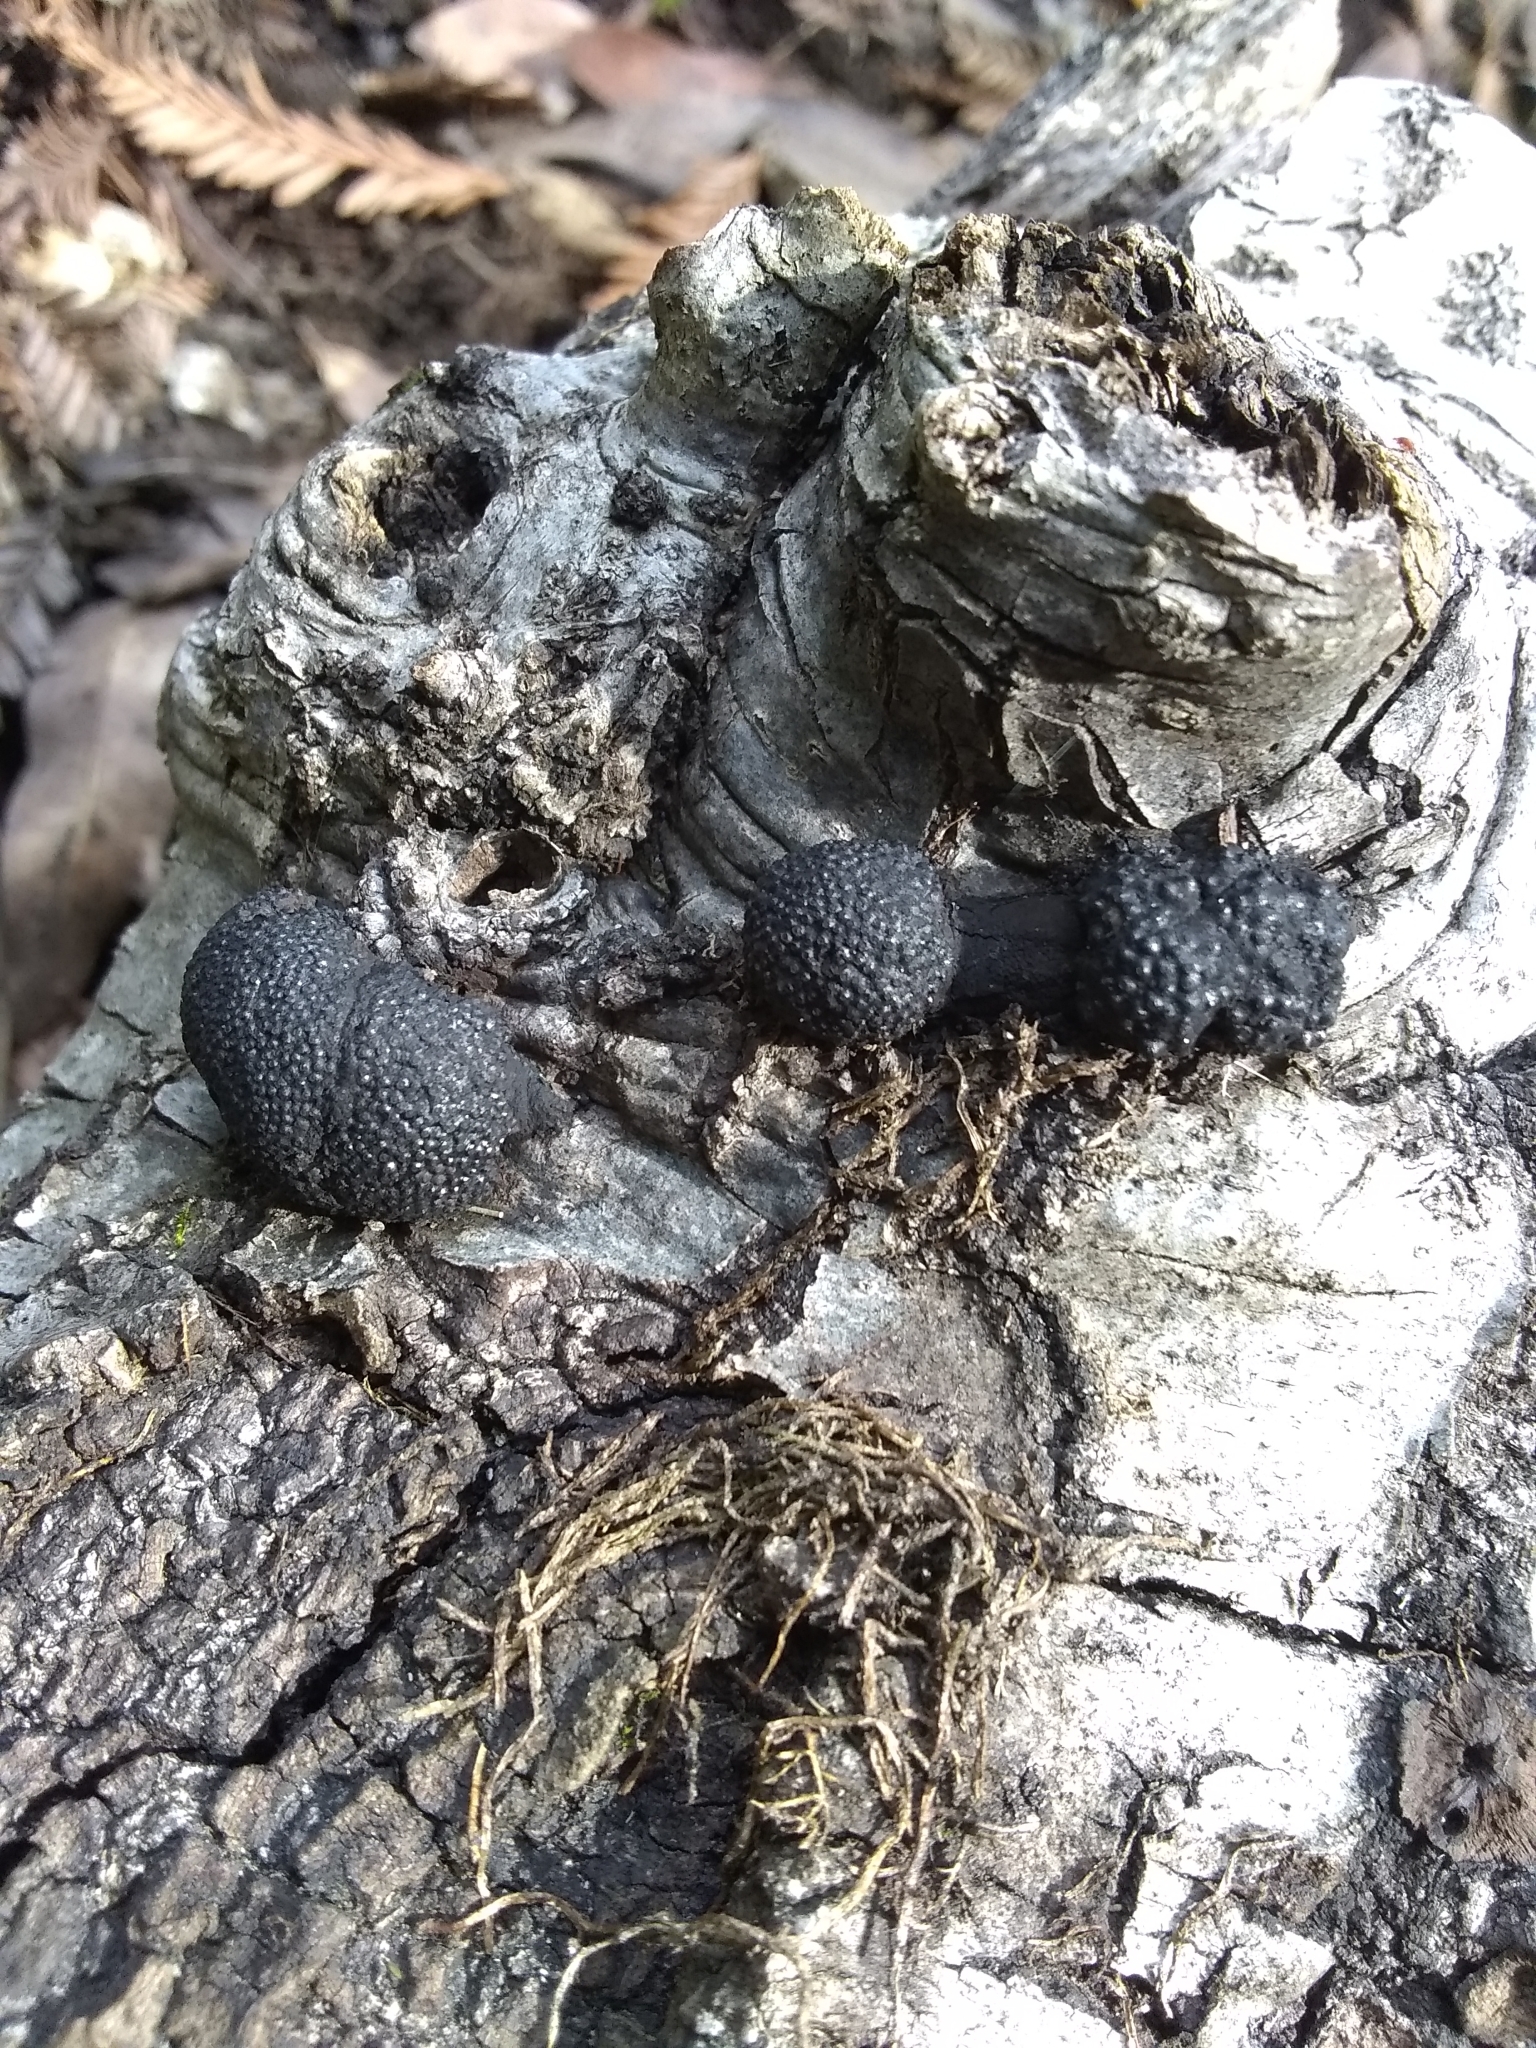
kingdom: Fungi
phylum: Ascomycota
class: Sordariomycetes
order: Xylariales
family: Hypoxylaceae
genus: Annulohypoxylon
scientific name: Annulohypoxylon thouarsianum
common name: Cramp balls
